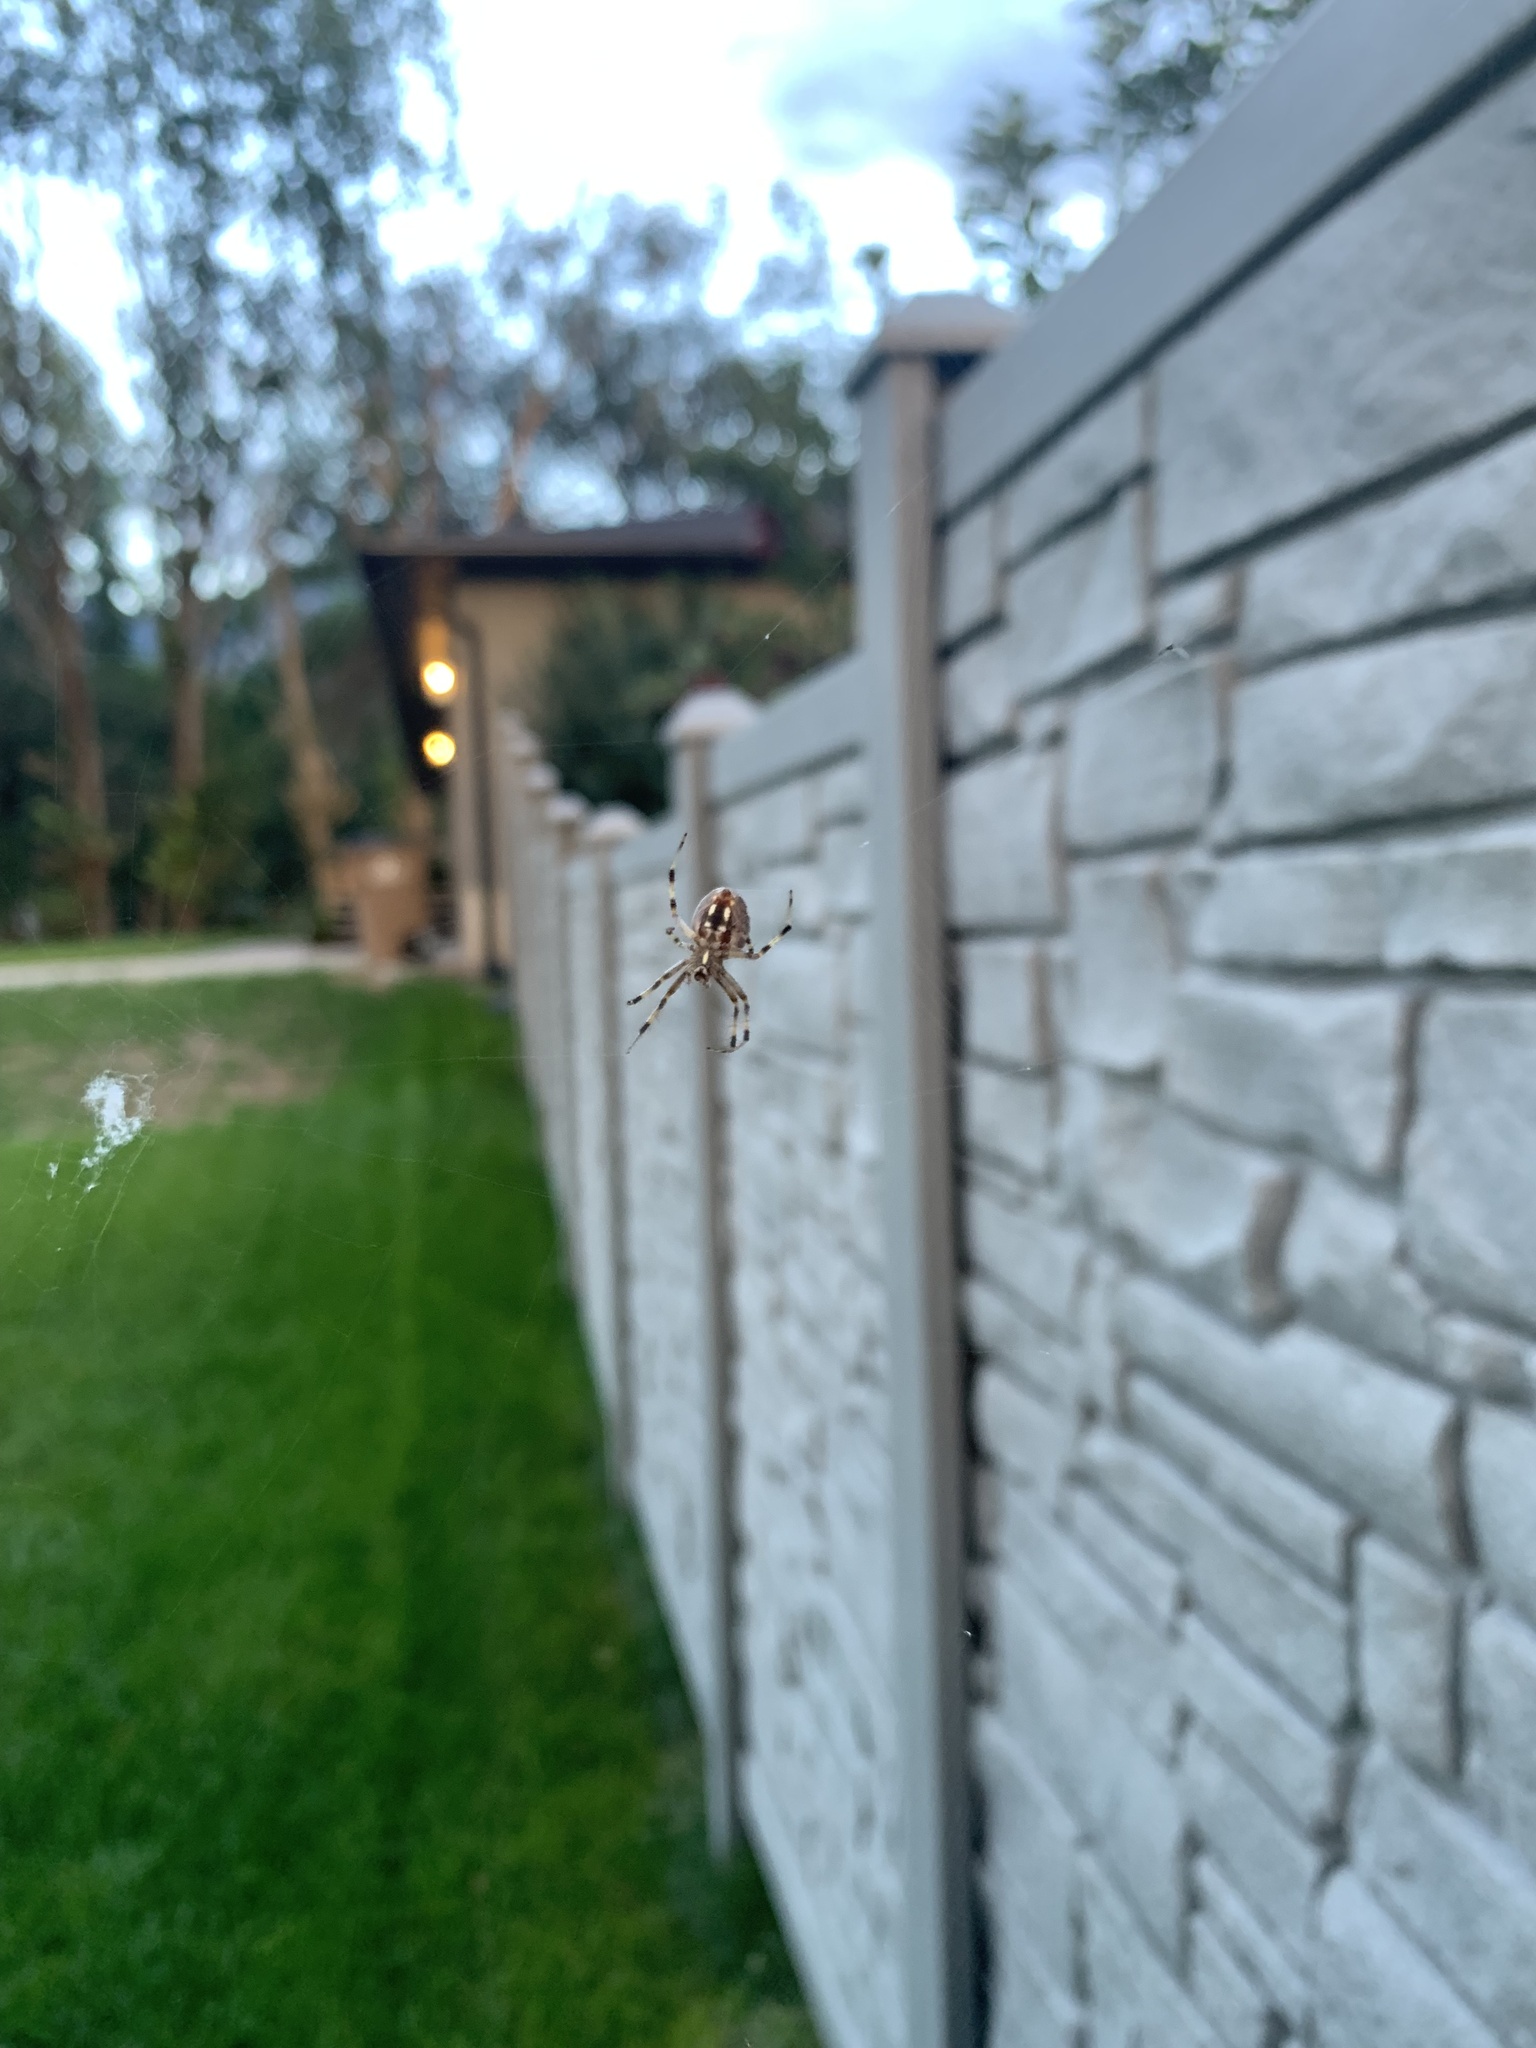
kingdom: Animalia
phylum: Arthropoda
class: Arachnida
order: Araneae
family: Araneidae
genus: Neoscona
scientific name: Neoscona oaxacensis
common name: Orb weavers
